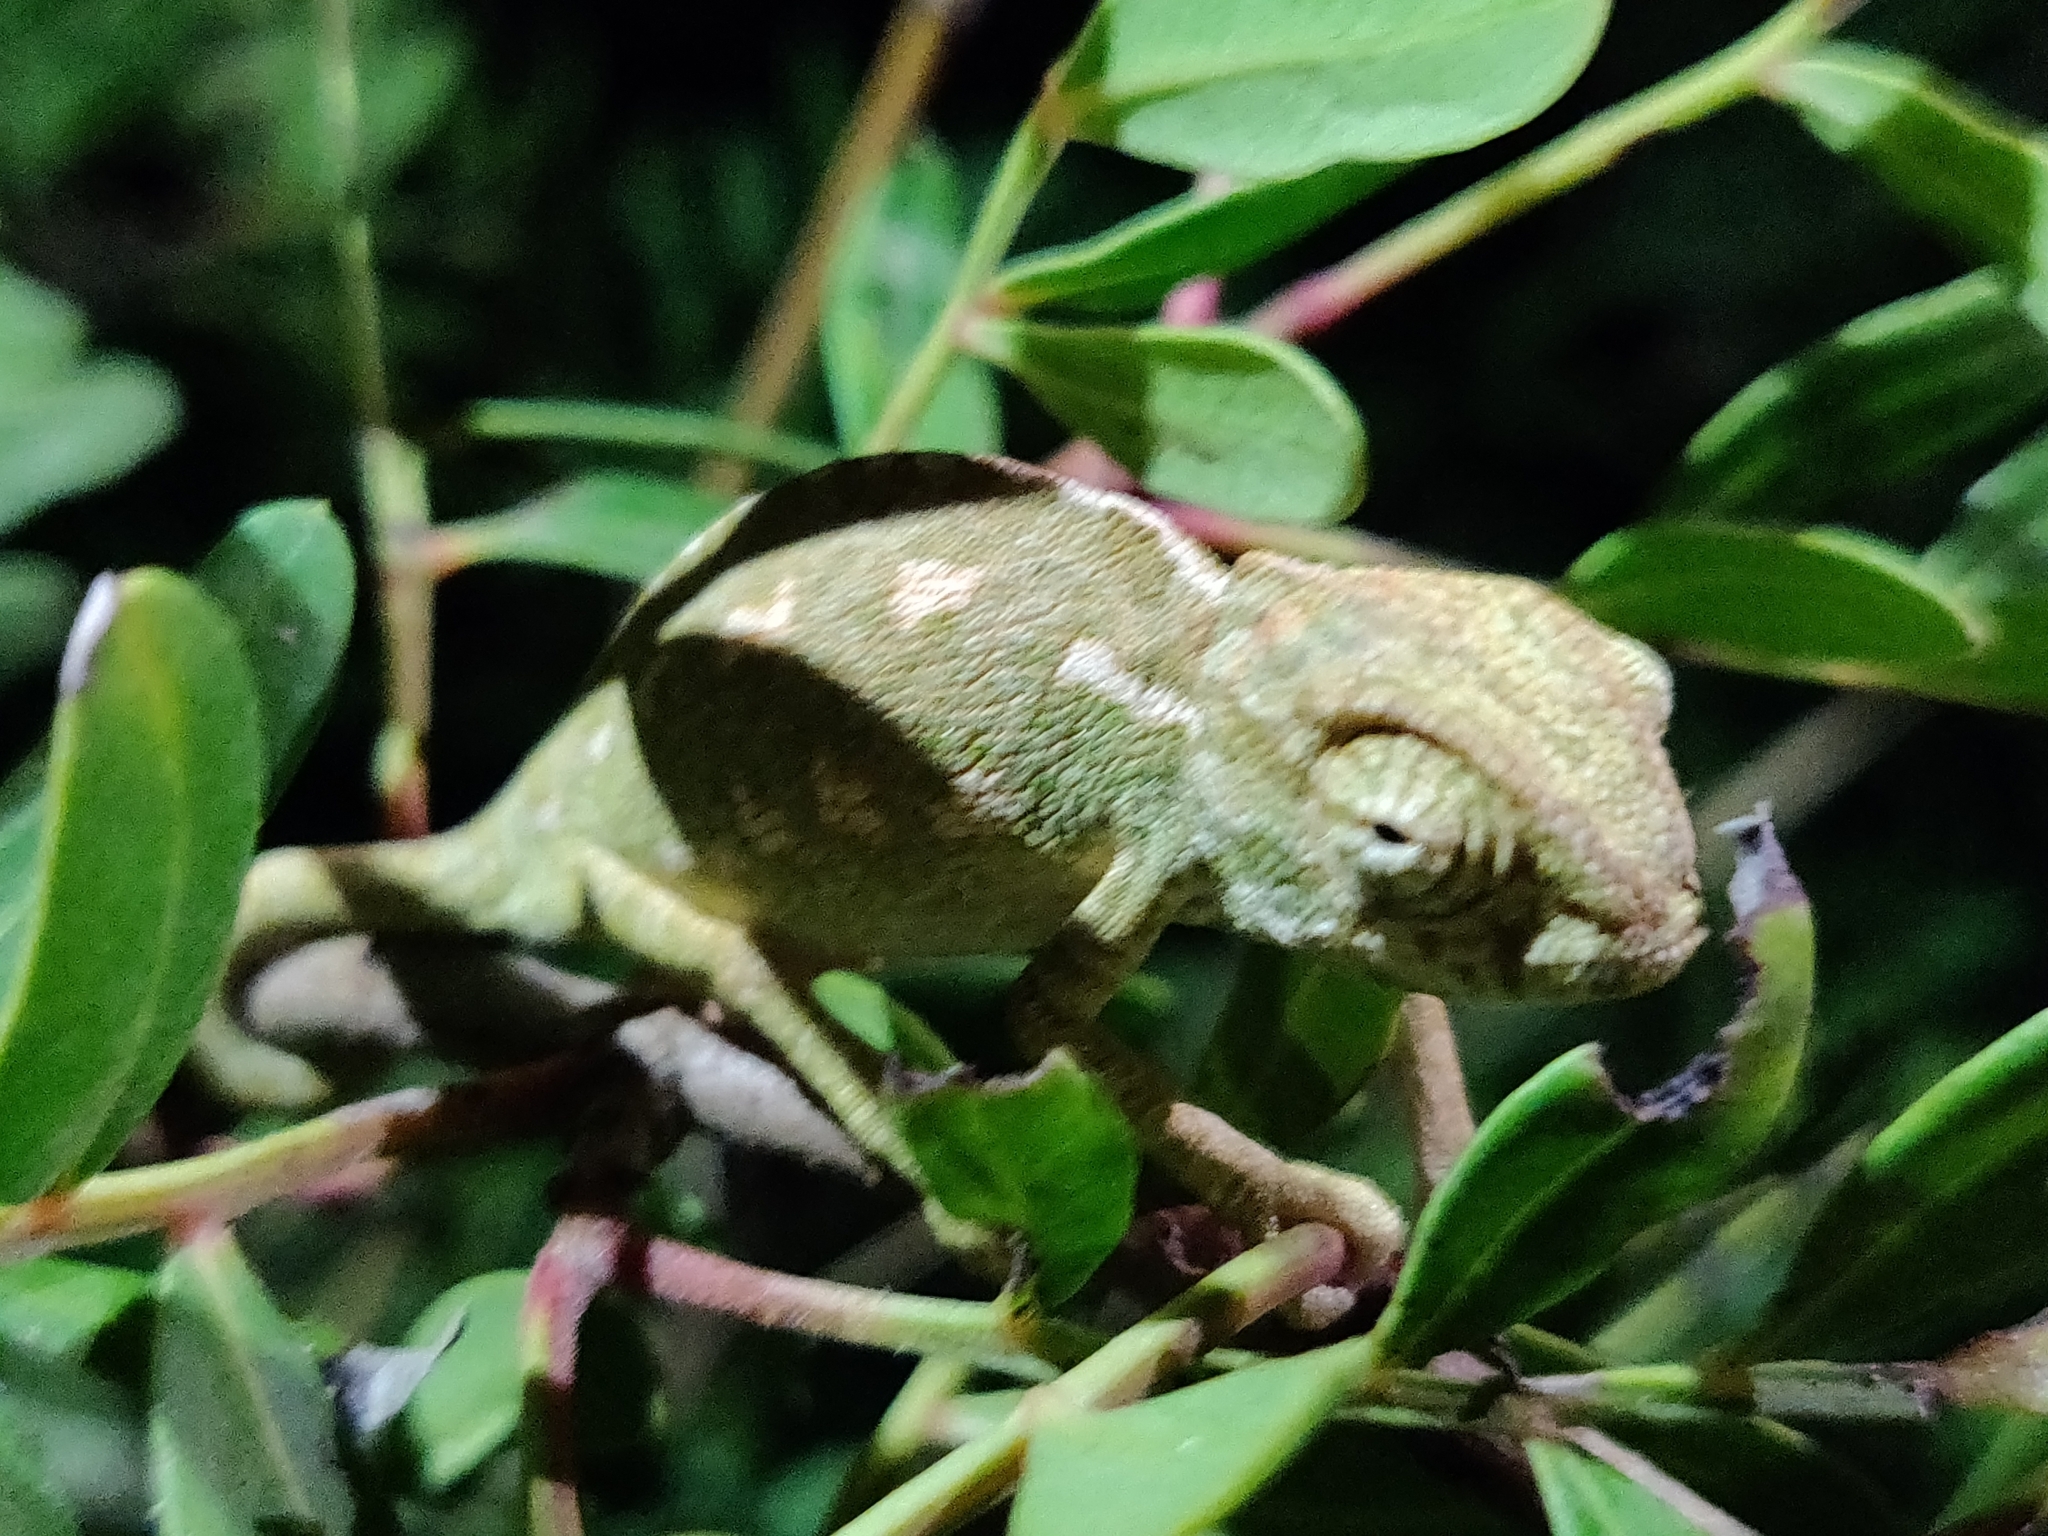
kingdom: Animalia
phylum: Chordata
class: Squamata
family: Chamaeleonidae
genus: Chamaeleo
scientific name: Chamaeleo chamaeleon
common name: Mediterranean chameleon
